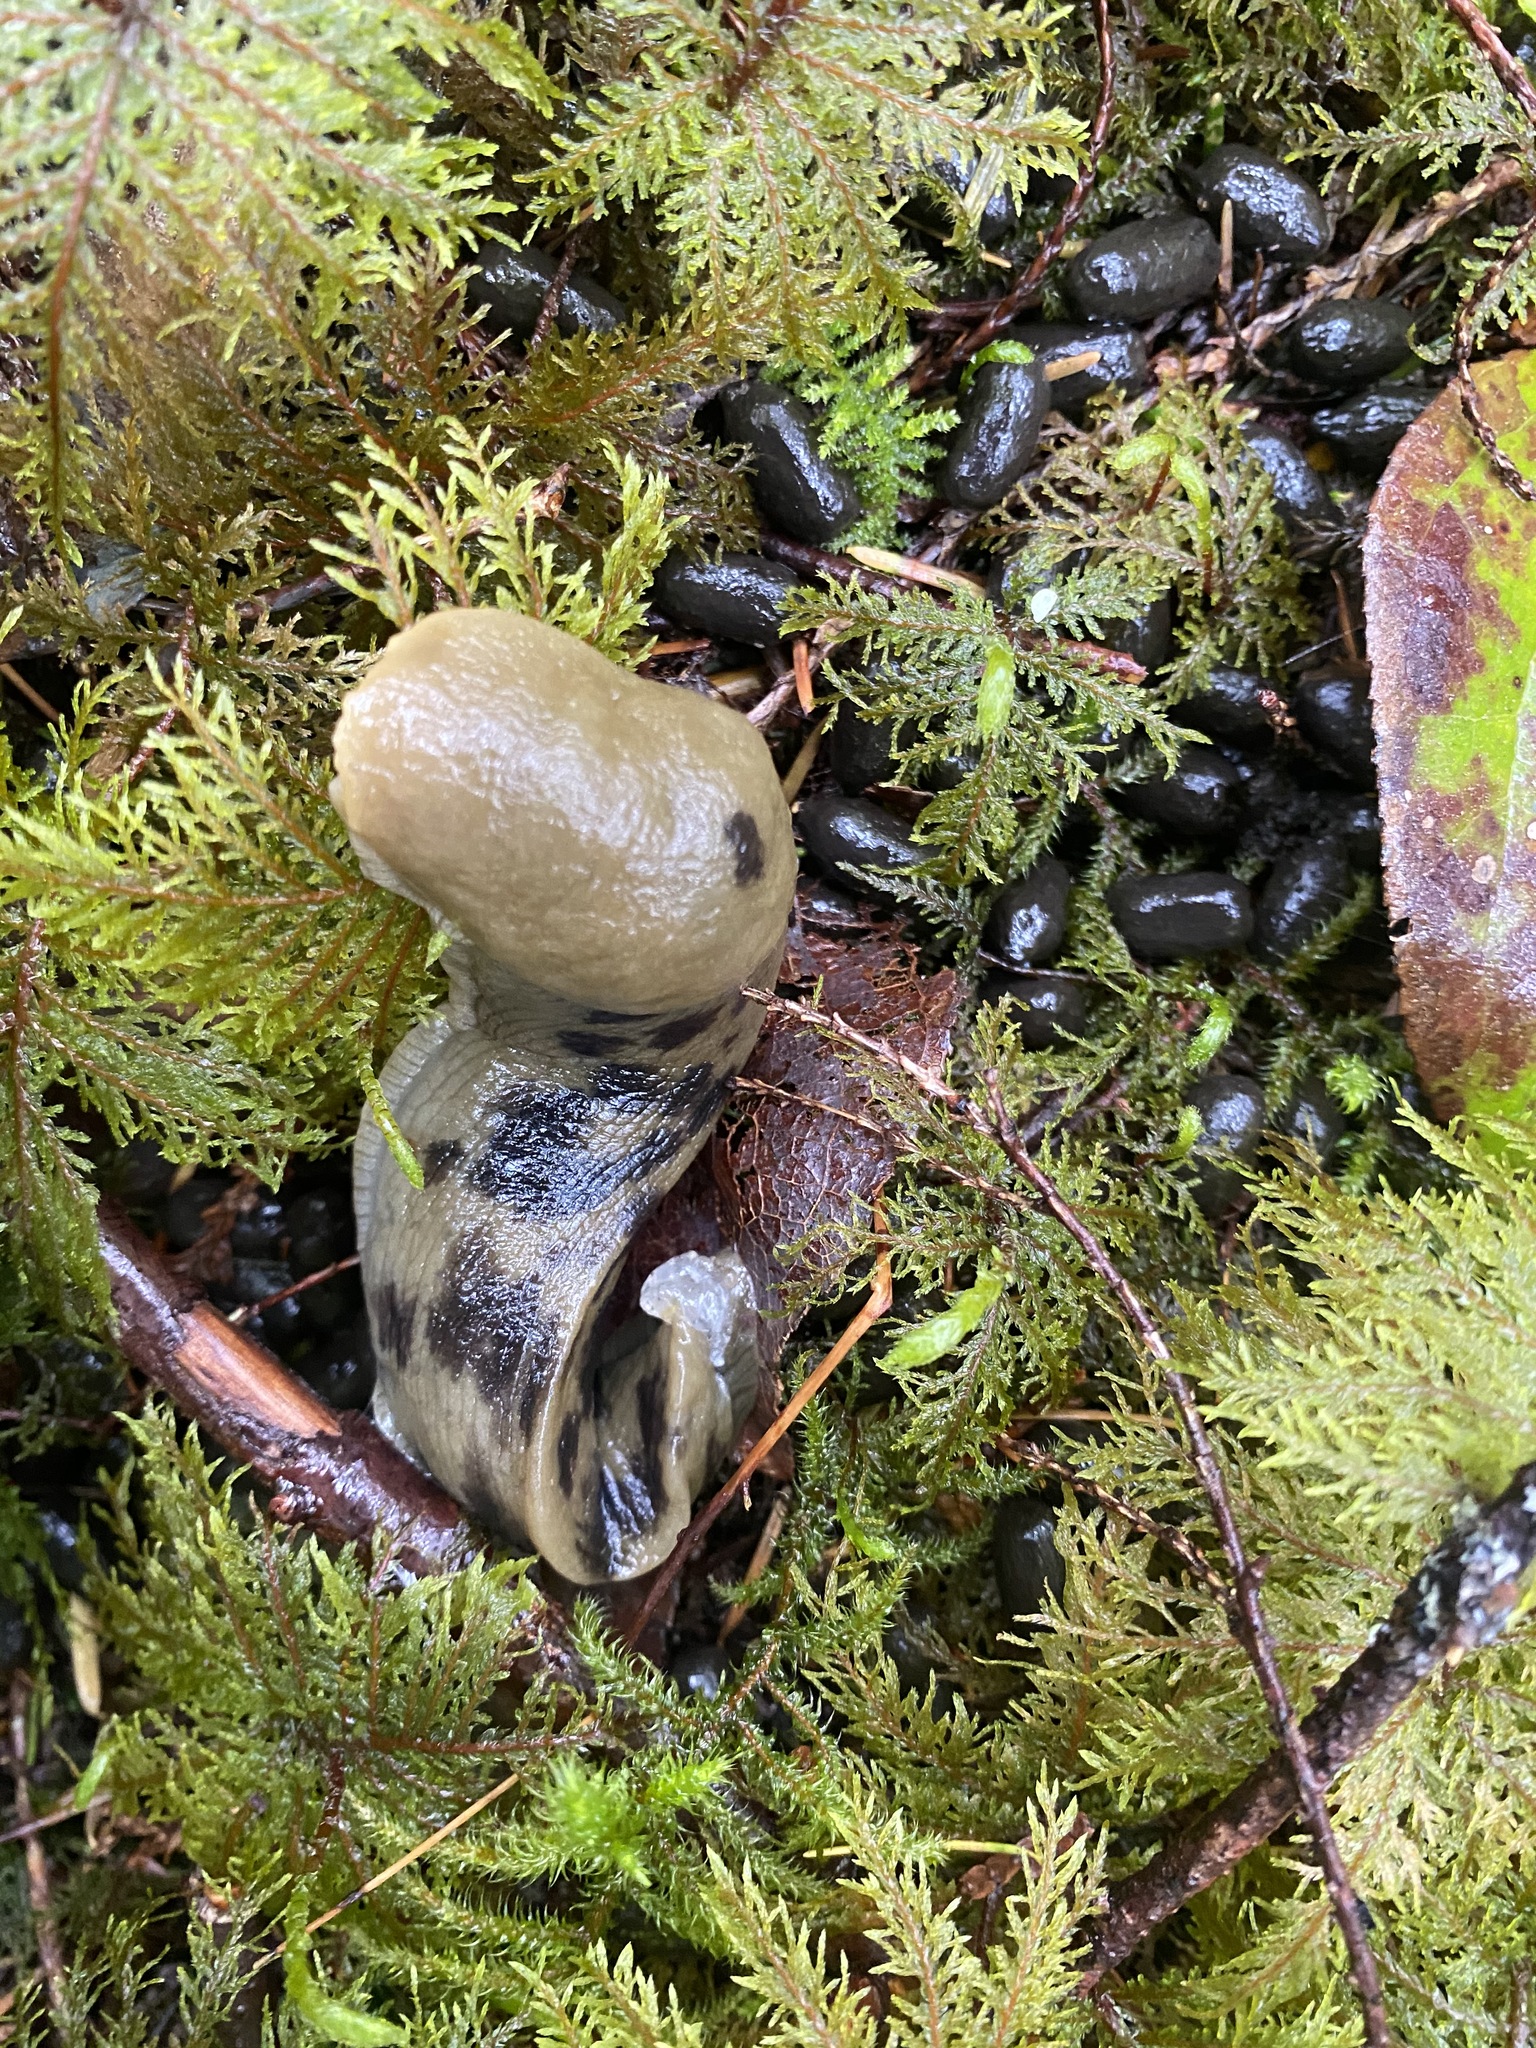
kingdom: Animalia
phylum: Mollusca
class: Gastropoda
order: Stylommatophora
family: Ariolimacidae
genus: Ariolimax
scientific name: Ariolimax columbianus
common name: Pacific banana slug
